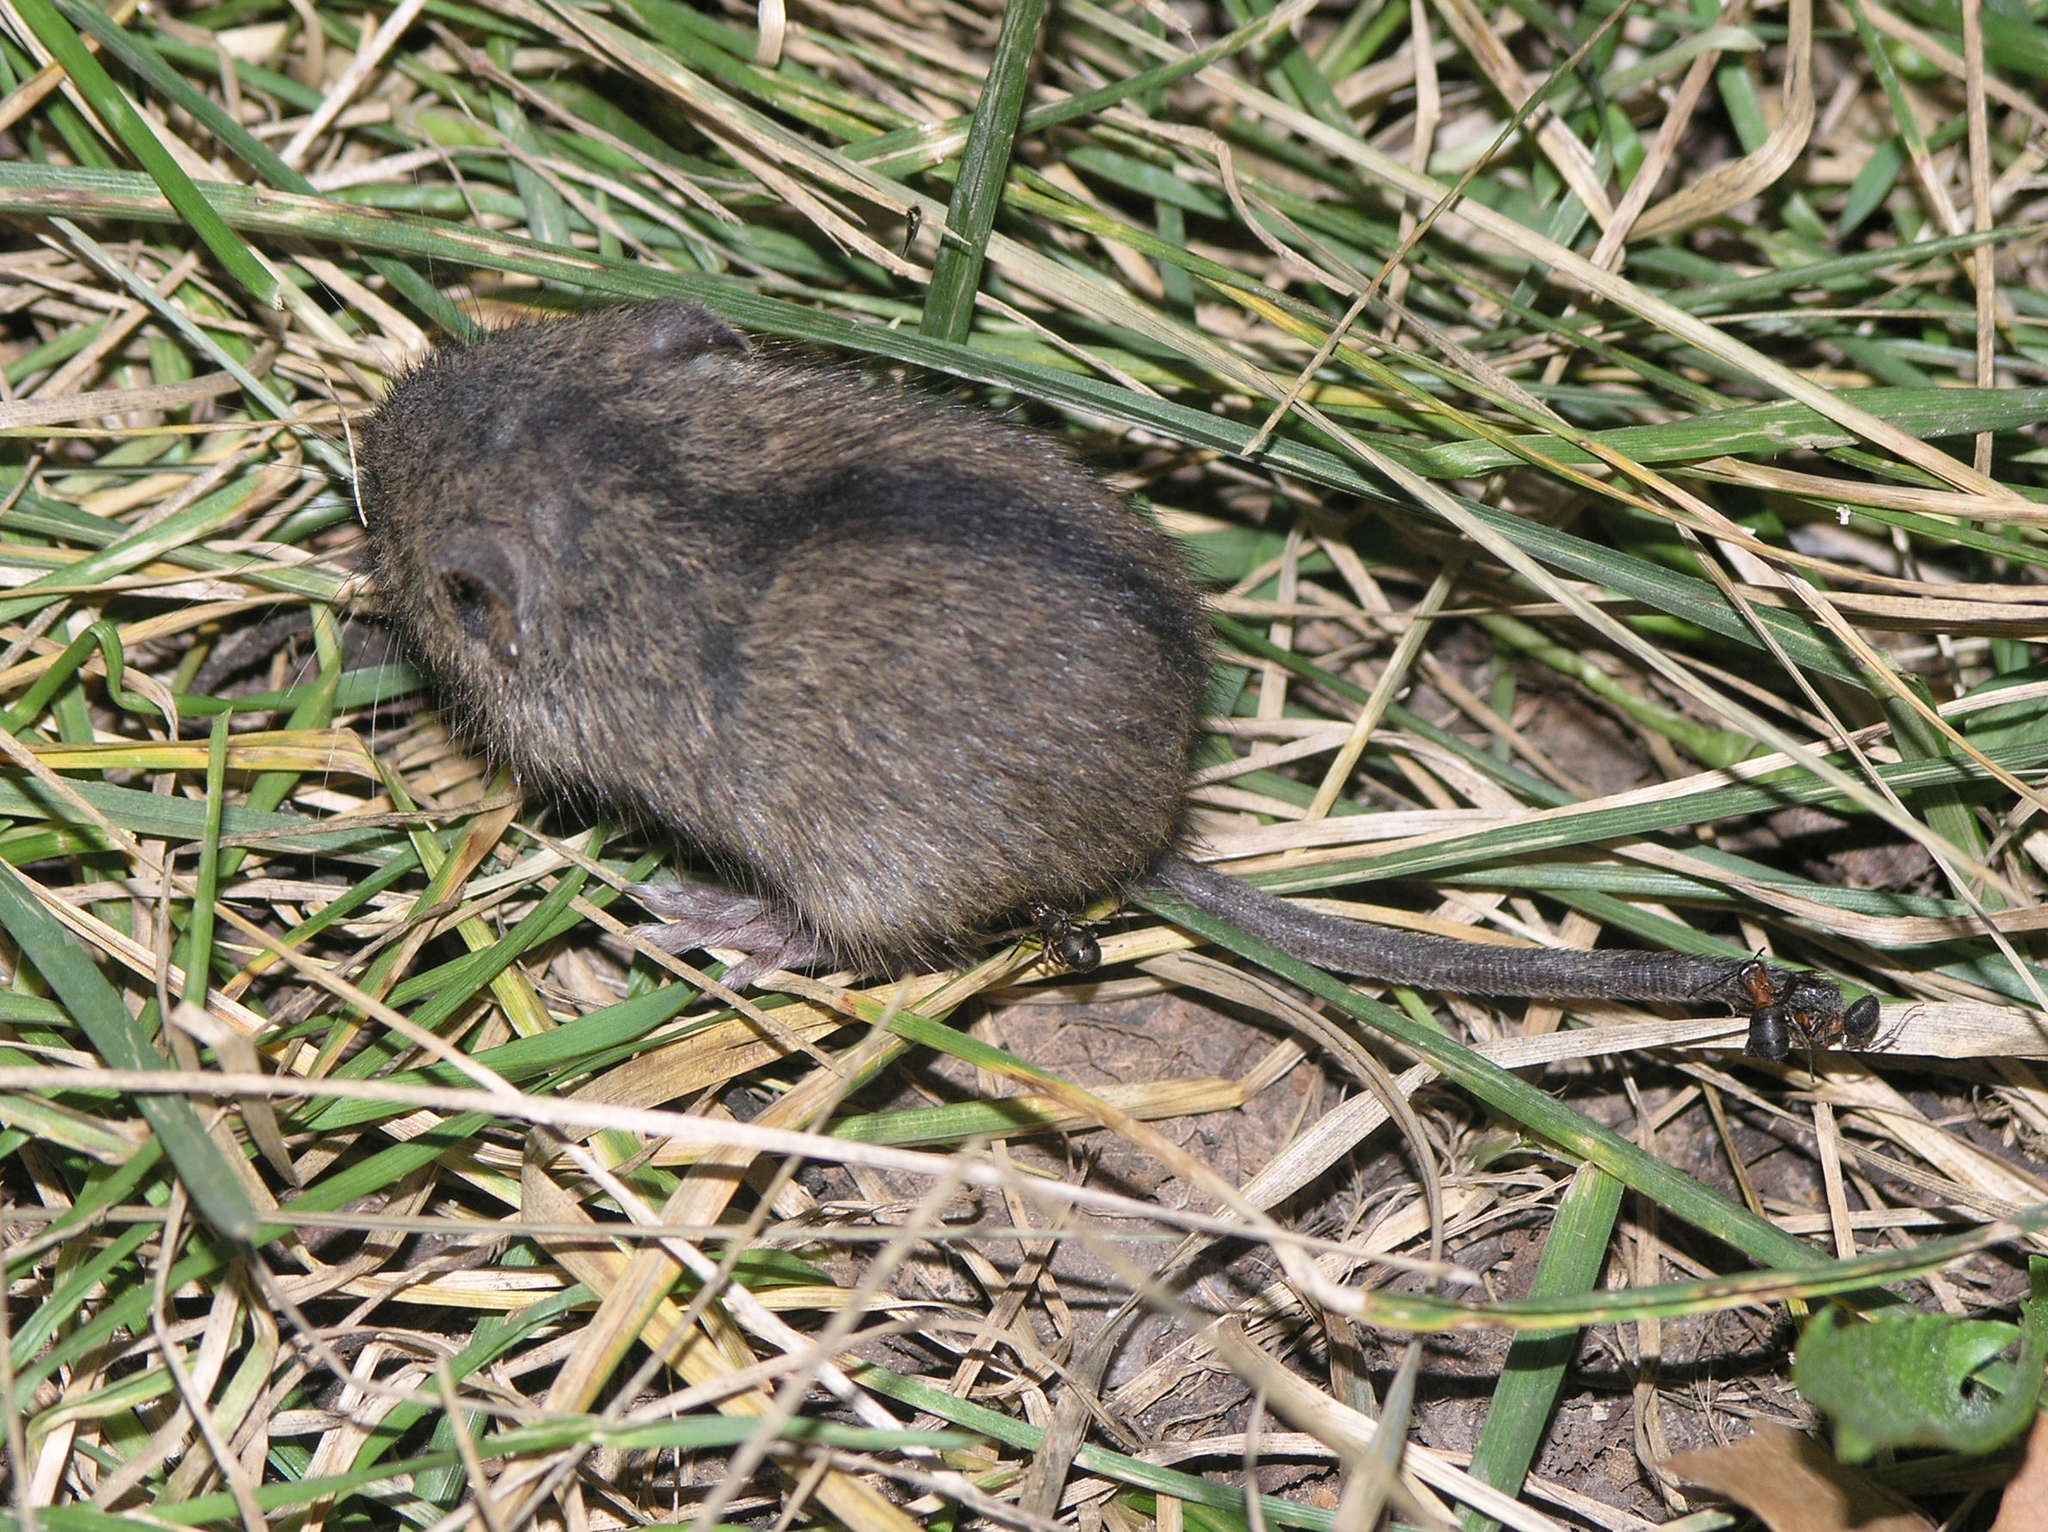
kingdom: Animalia
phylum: Chordata
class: Mammalia
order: Rodentia
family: Dipodidae
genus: Sicista
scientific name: Sicista betulina
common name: Northern birch mouse
